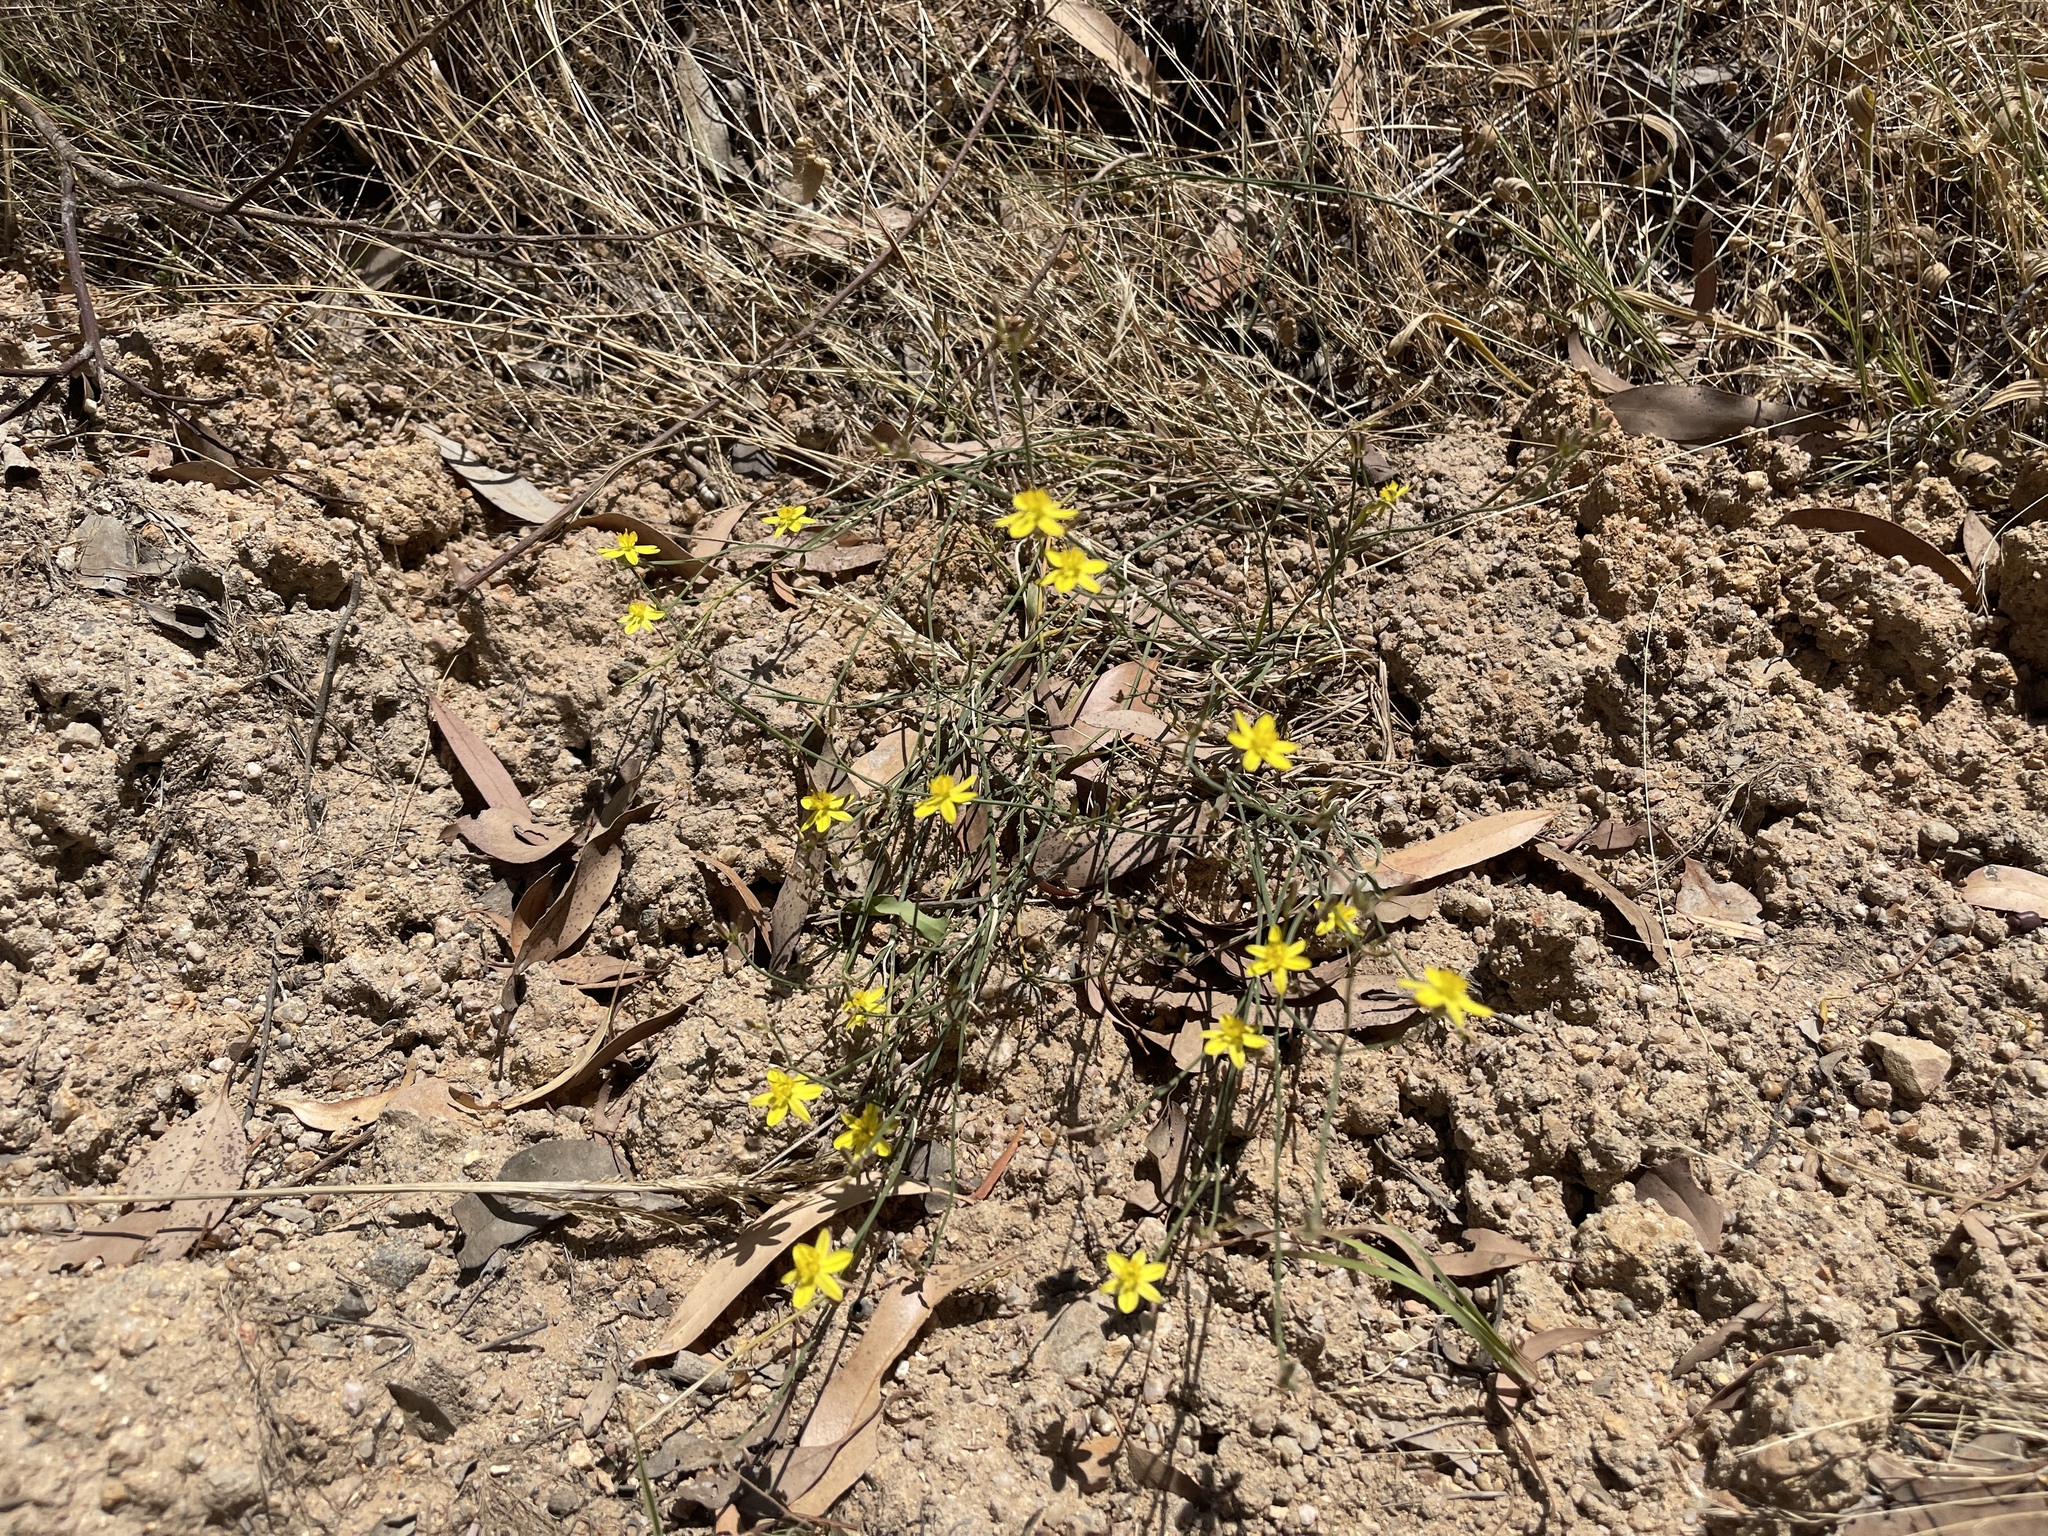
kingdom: Plantae
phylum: Tracheophyta
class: Liliopsida
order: Asparagales
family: Asphodelaceae
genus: Tricoryne
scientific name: Tricoryne elatior
